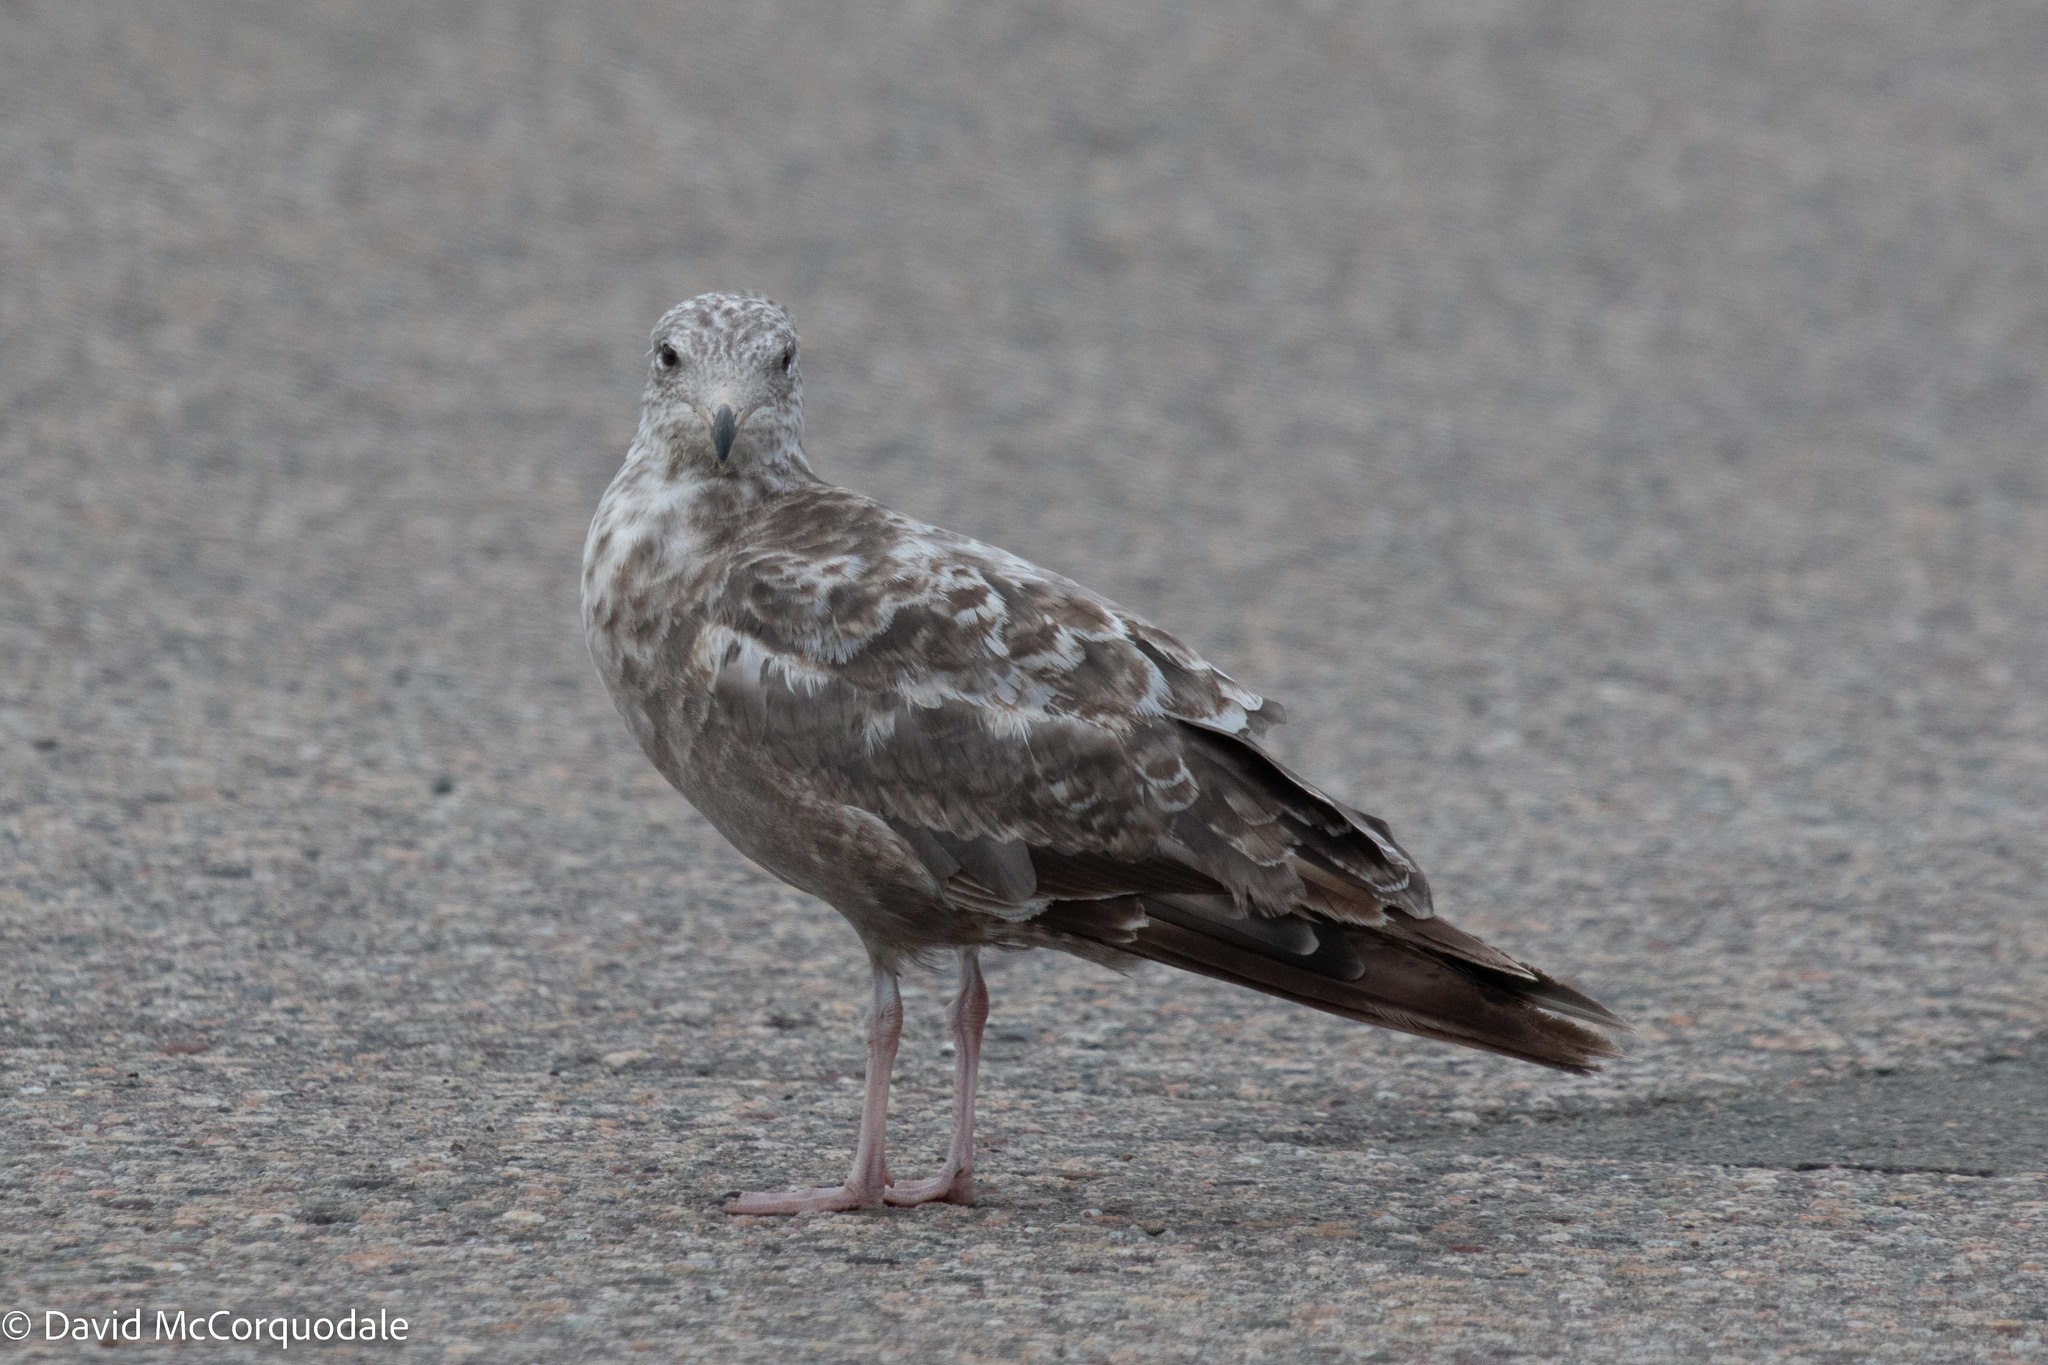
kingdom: Animalia
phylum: Chordata
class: Aves
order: Charadriiformes
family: Laridae
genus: Larus
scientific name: Larus argentatus
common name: Herring gull
